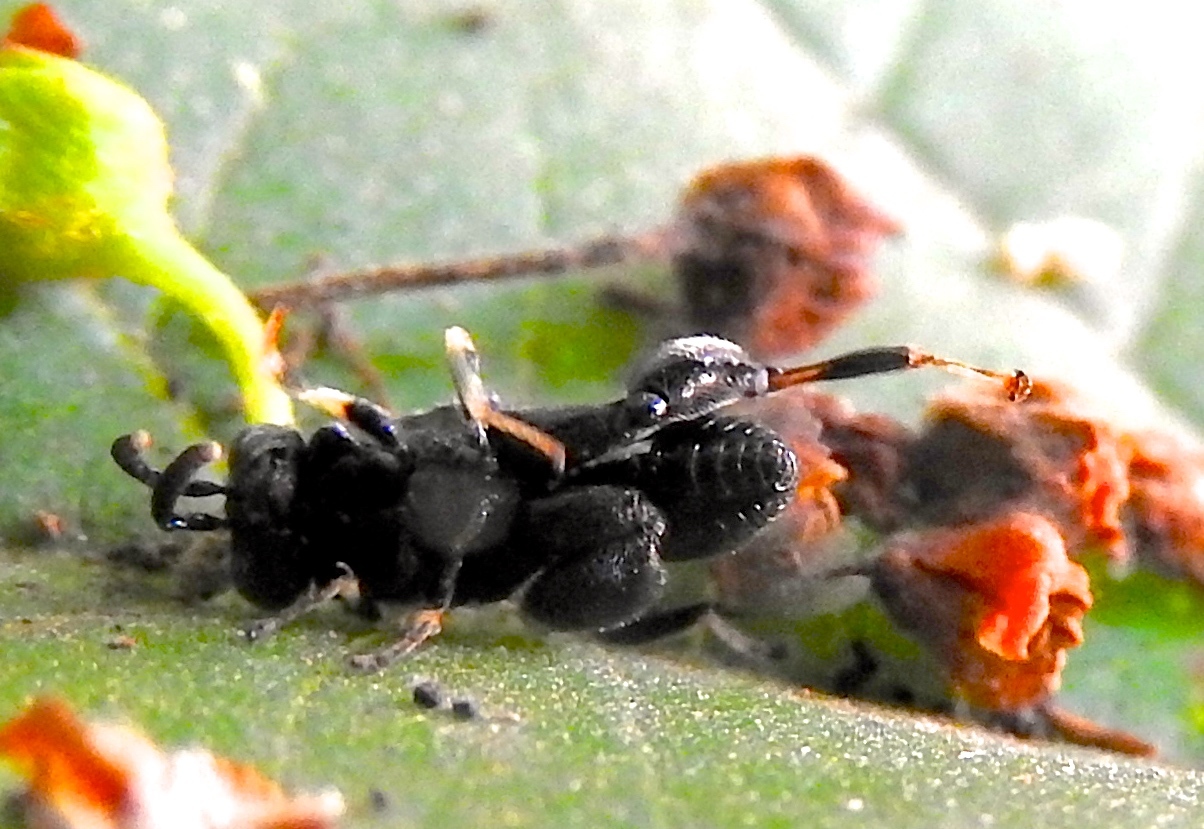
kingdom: Animalia
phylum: Arthropoda
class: Insecta
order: Hymenoptera
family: Chalcididae
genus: Brachymeria
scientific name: Brachymeria
